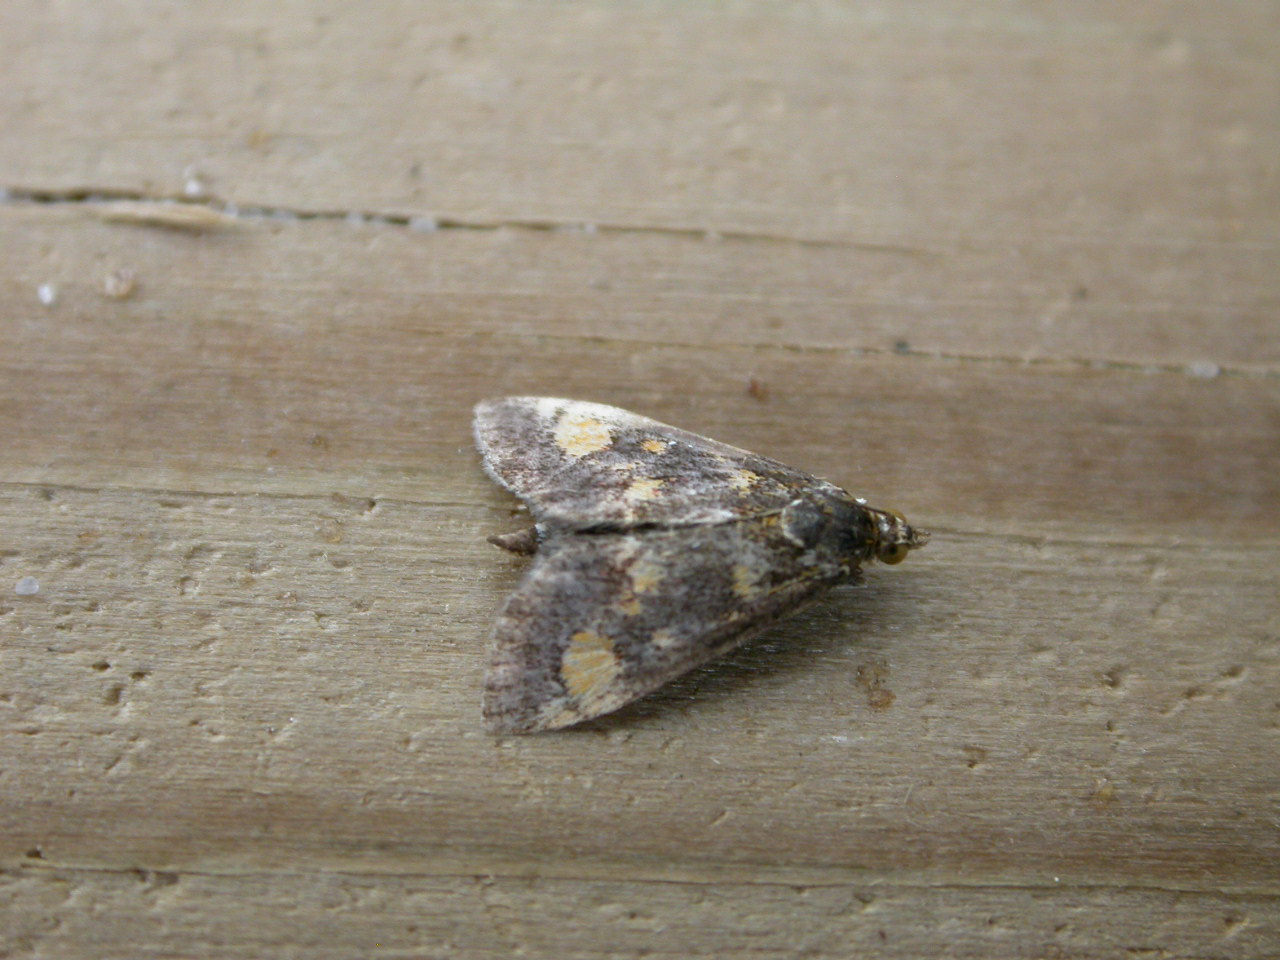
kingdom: Animalia
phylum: Arthropoda
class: Insecta
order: Lepidoptera
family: Crambidae
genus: Pyrausta
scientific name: Pyrausta aurata
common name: Small purple & gold
